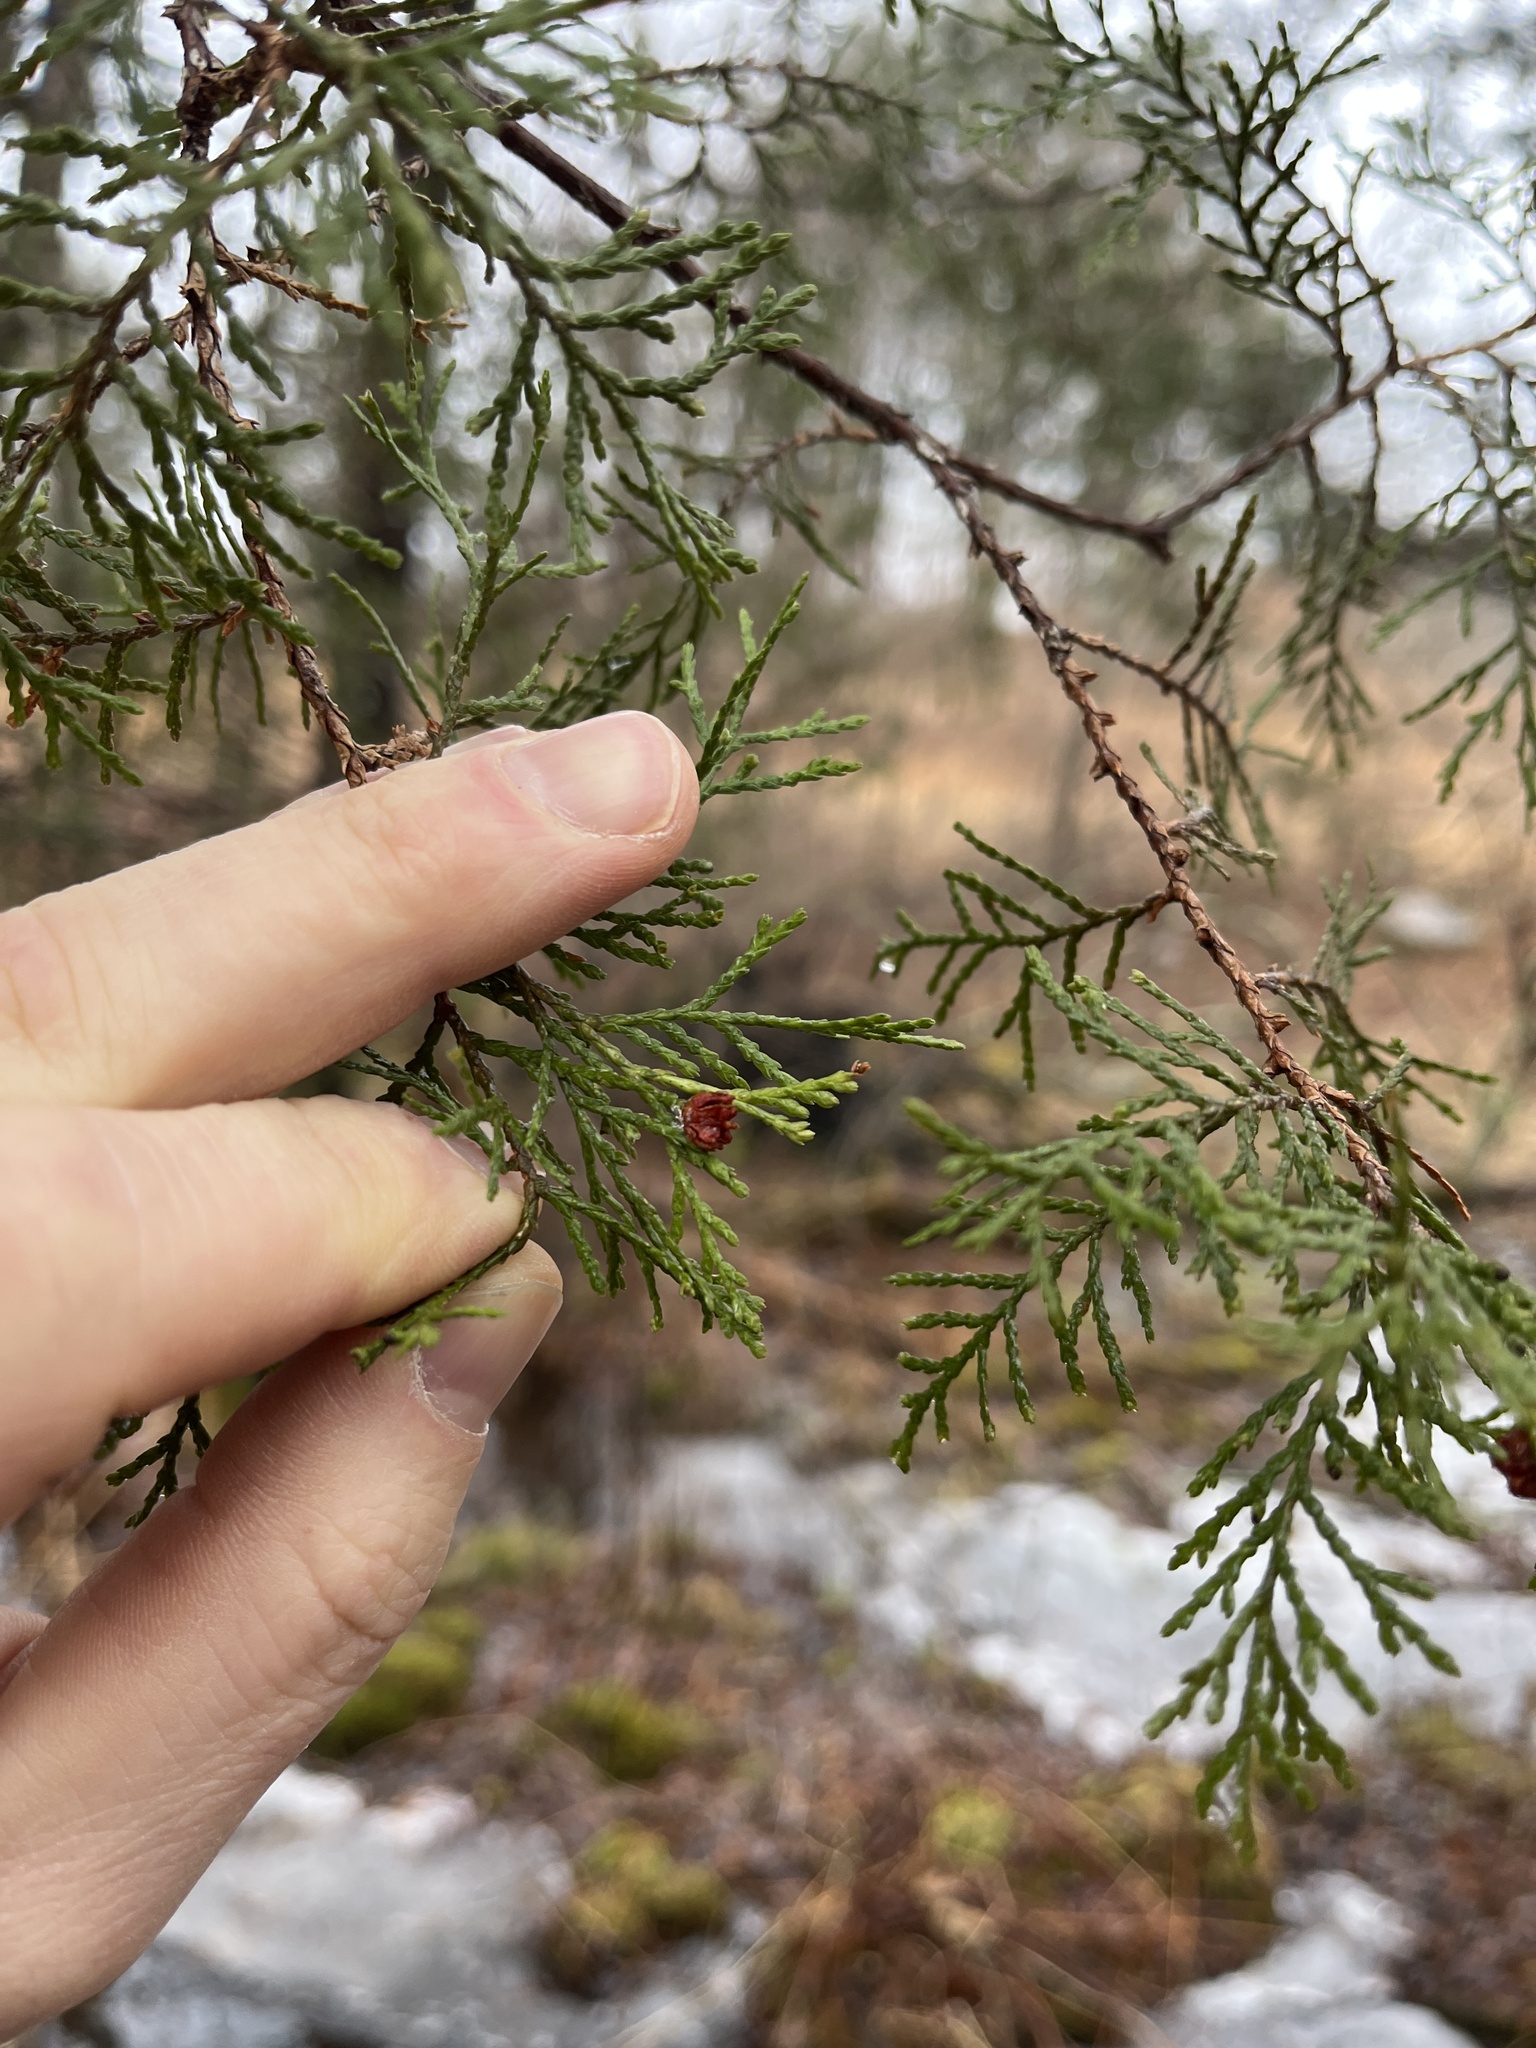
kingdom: Plantae
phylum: Tracheophyta
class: Pinopsida
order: Pinales
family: Cupressaceae
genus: Chamaecyparis
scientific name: Chamaecyparis thyoides
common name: Atlantic white cedar
